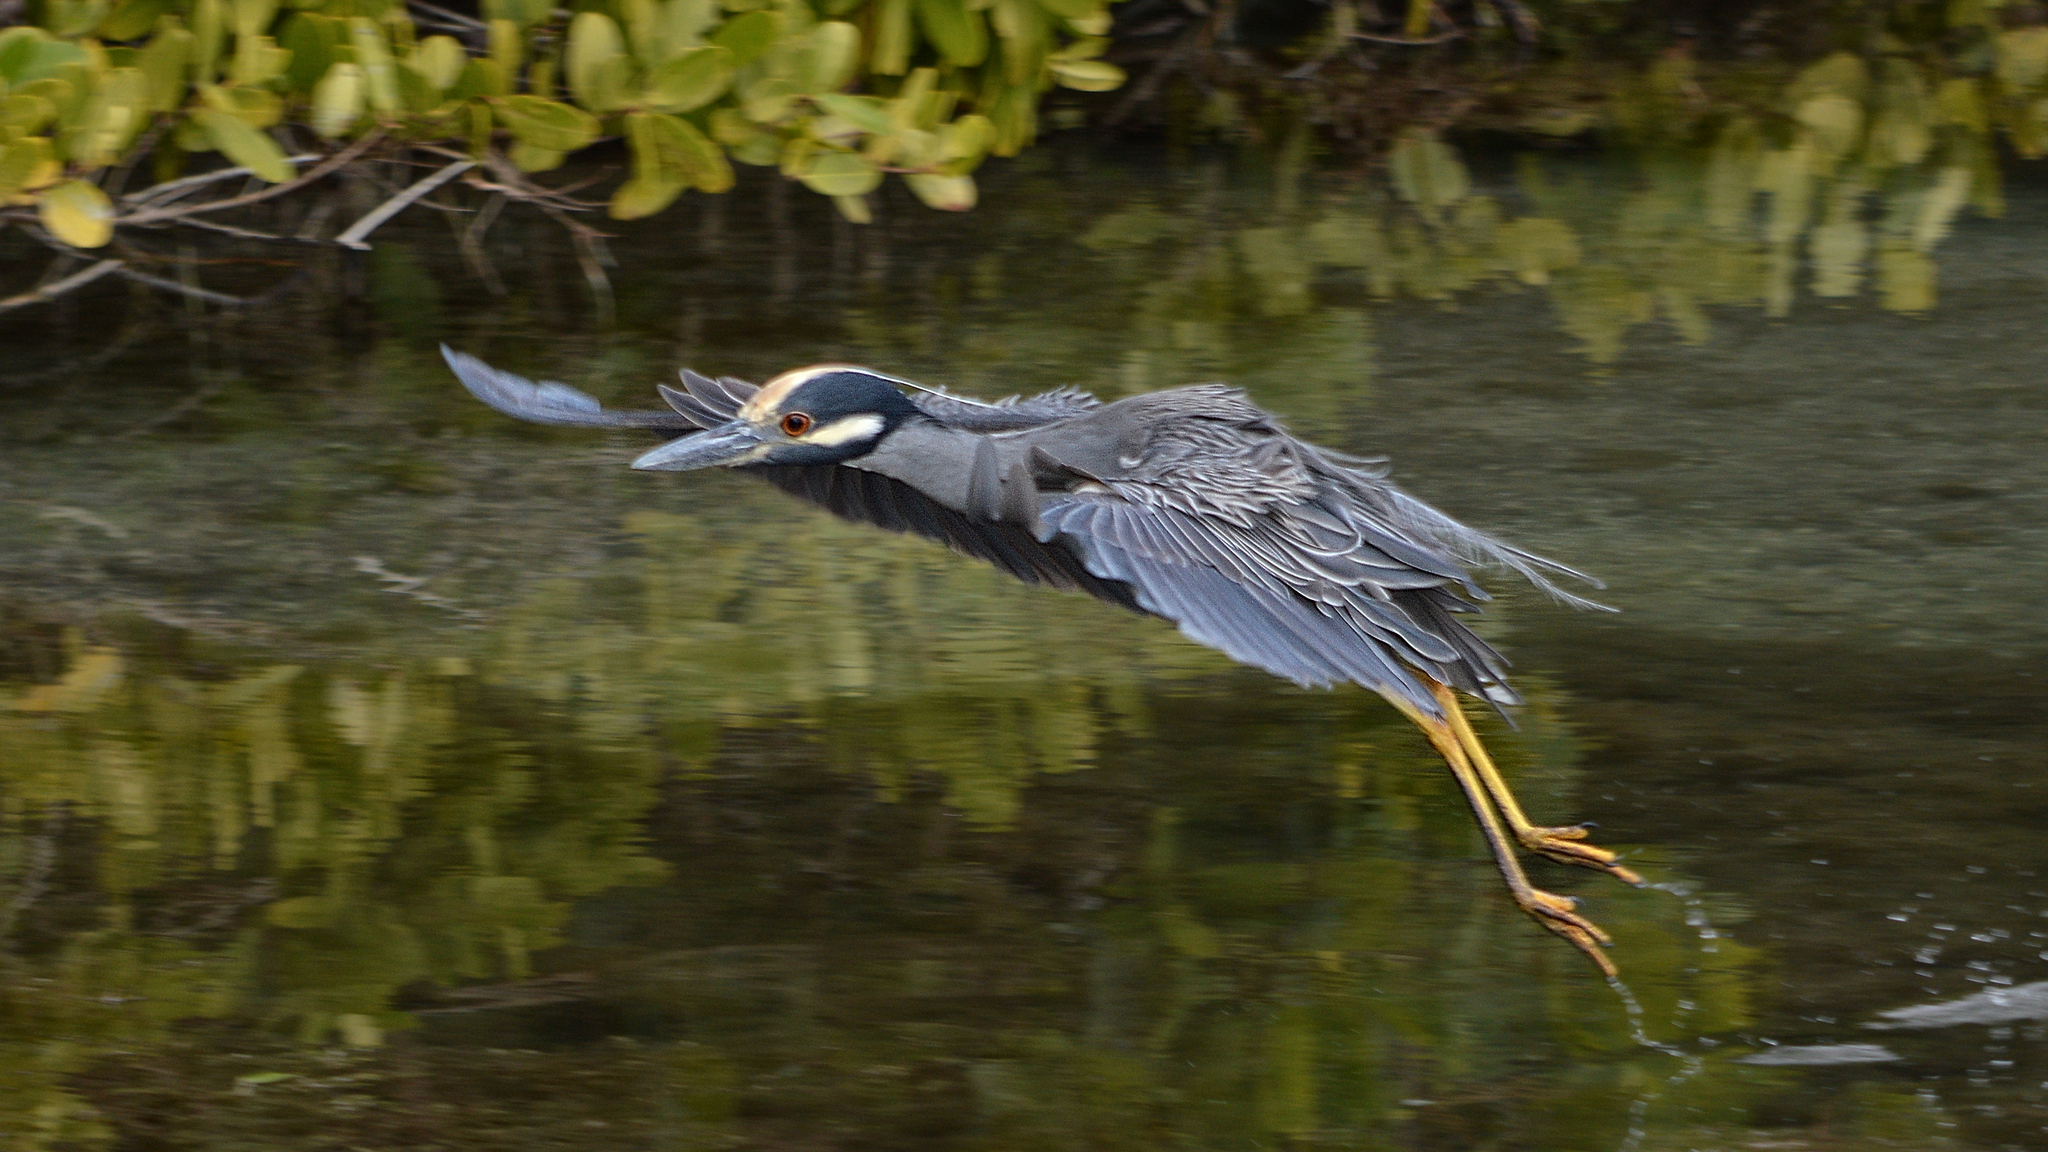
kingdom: Animalia
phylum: Chordata
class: Aves
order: Pelecaniformes
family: Ardeidae
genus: Nyctanassa
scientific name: Nyctanassa violacea
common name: Yellow-crowned night heron
